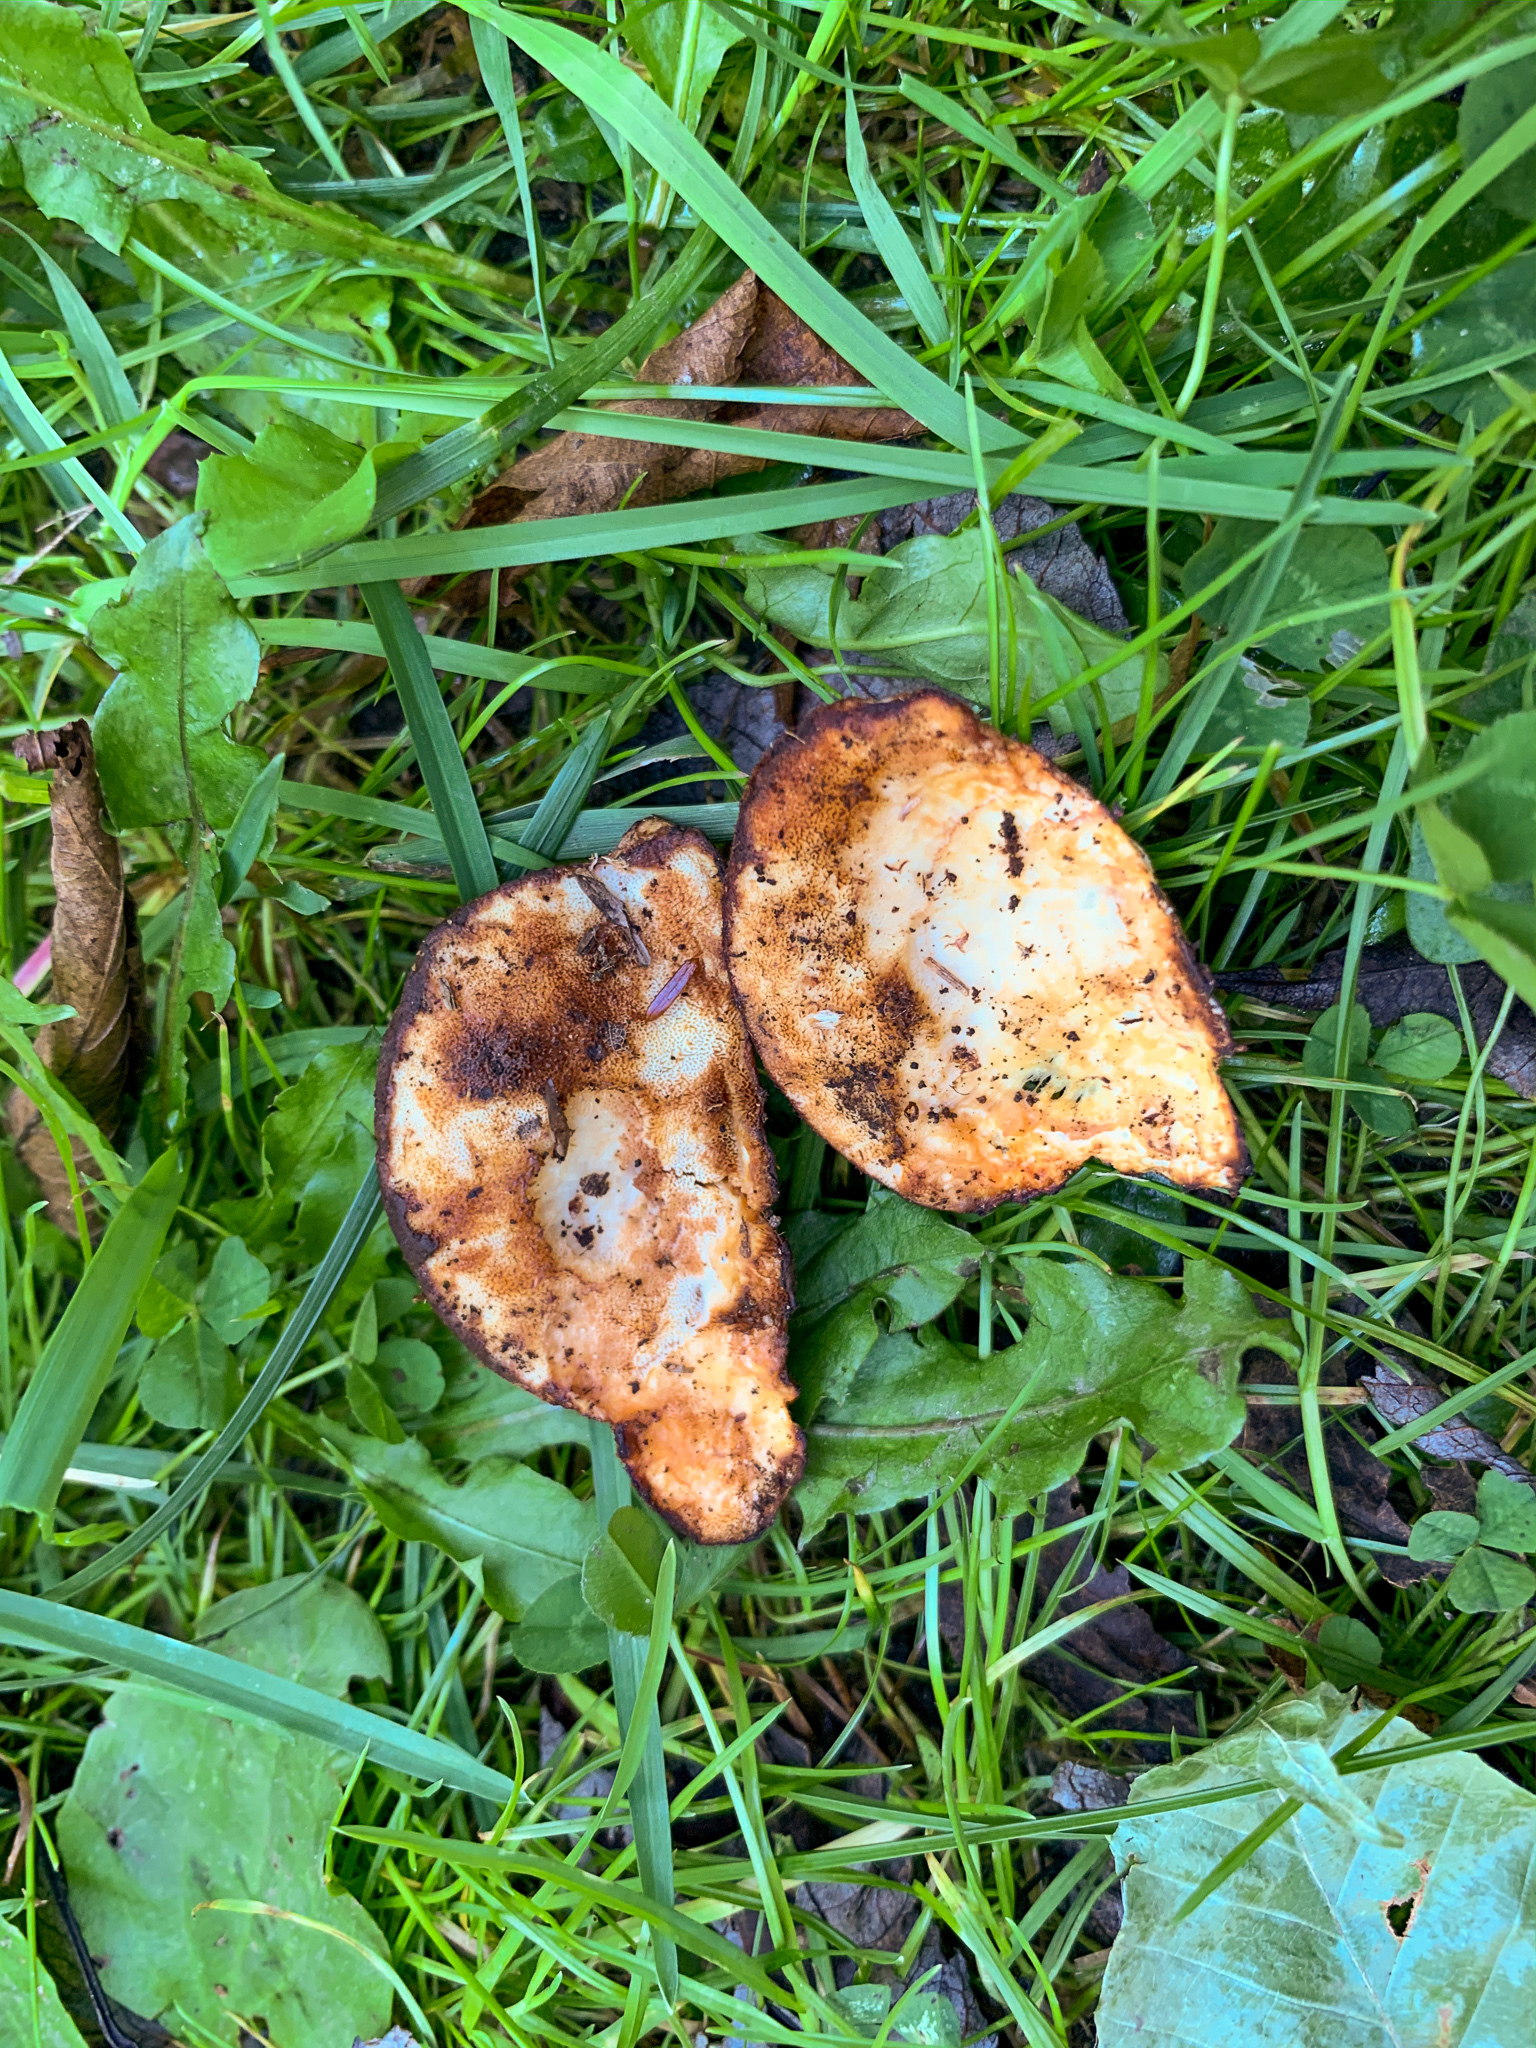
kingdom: Fungi
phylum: Basidiomycota
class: Agaricomycetes
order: Polyporales
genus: Fuscopostia
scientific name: Fuscopostia fragilis
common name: Brown-staining cheese polypore
